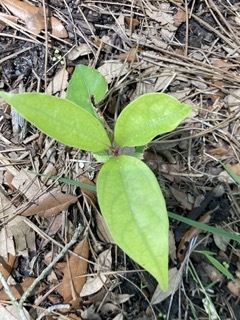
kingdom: Plantae
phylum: Tracheophyta
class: Magnoliopsida
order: Laurales
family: Lauraceae
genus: Cinnamomum
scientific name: Cinnamomum camphora
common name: Camphortree
